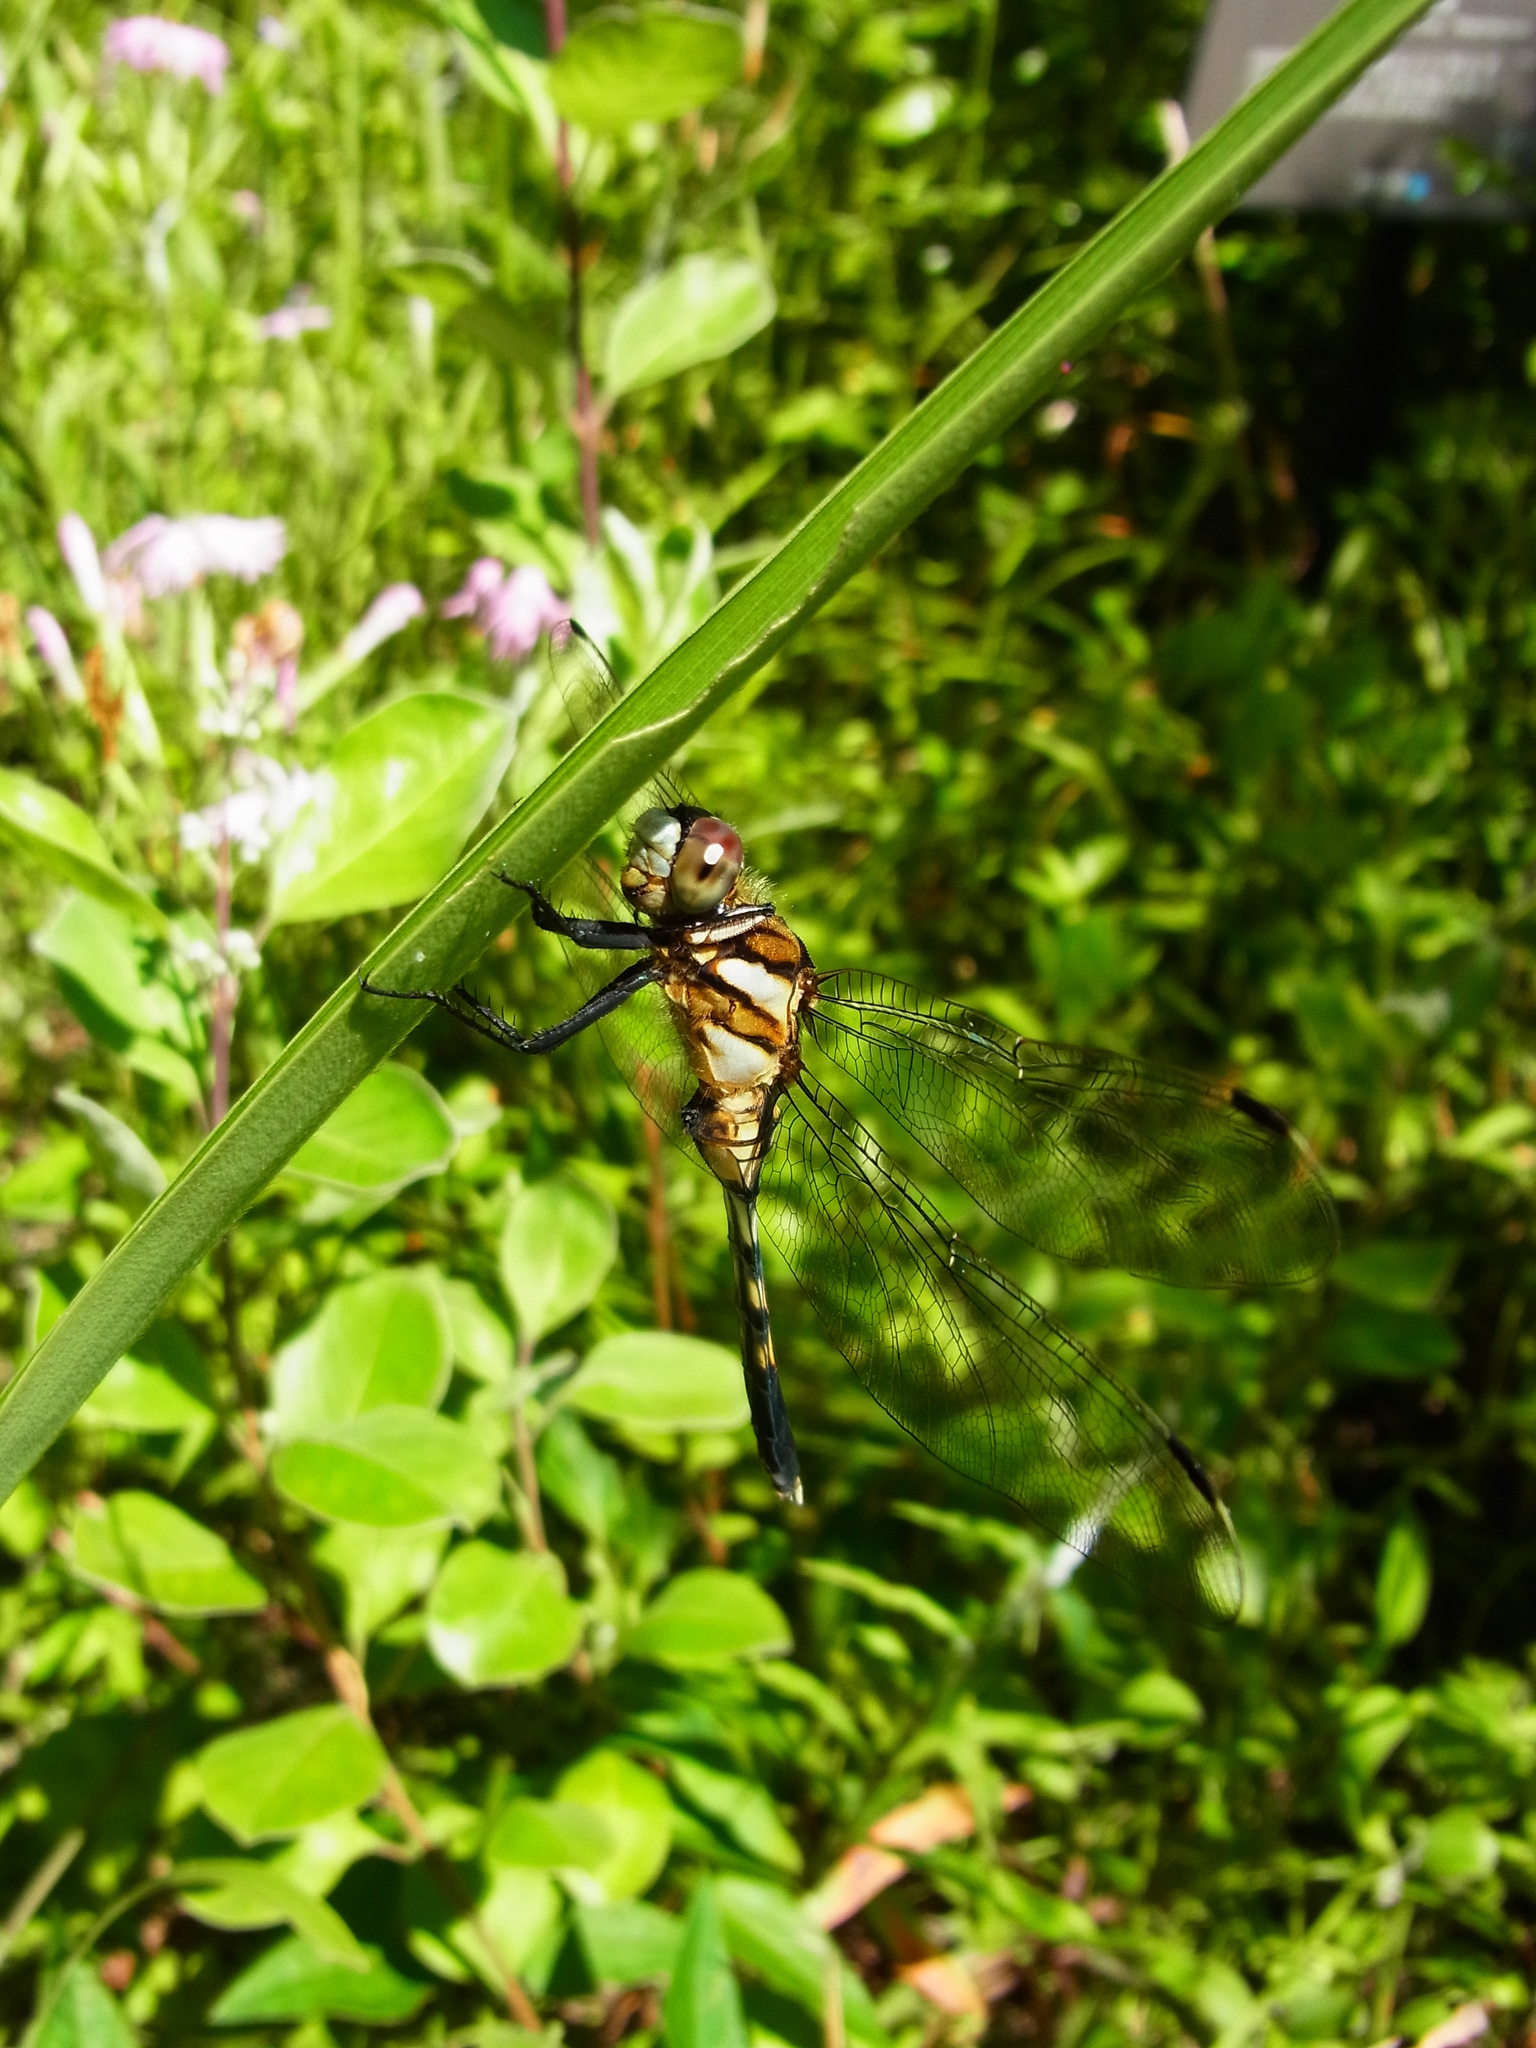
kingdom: Animalia
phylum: Arthropoda
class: Insecta
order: Odonata
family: Libellulidae
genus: Orthetrum
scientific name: Orthetrum albistylum
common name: White-tailed skimmer
